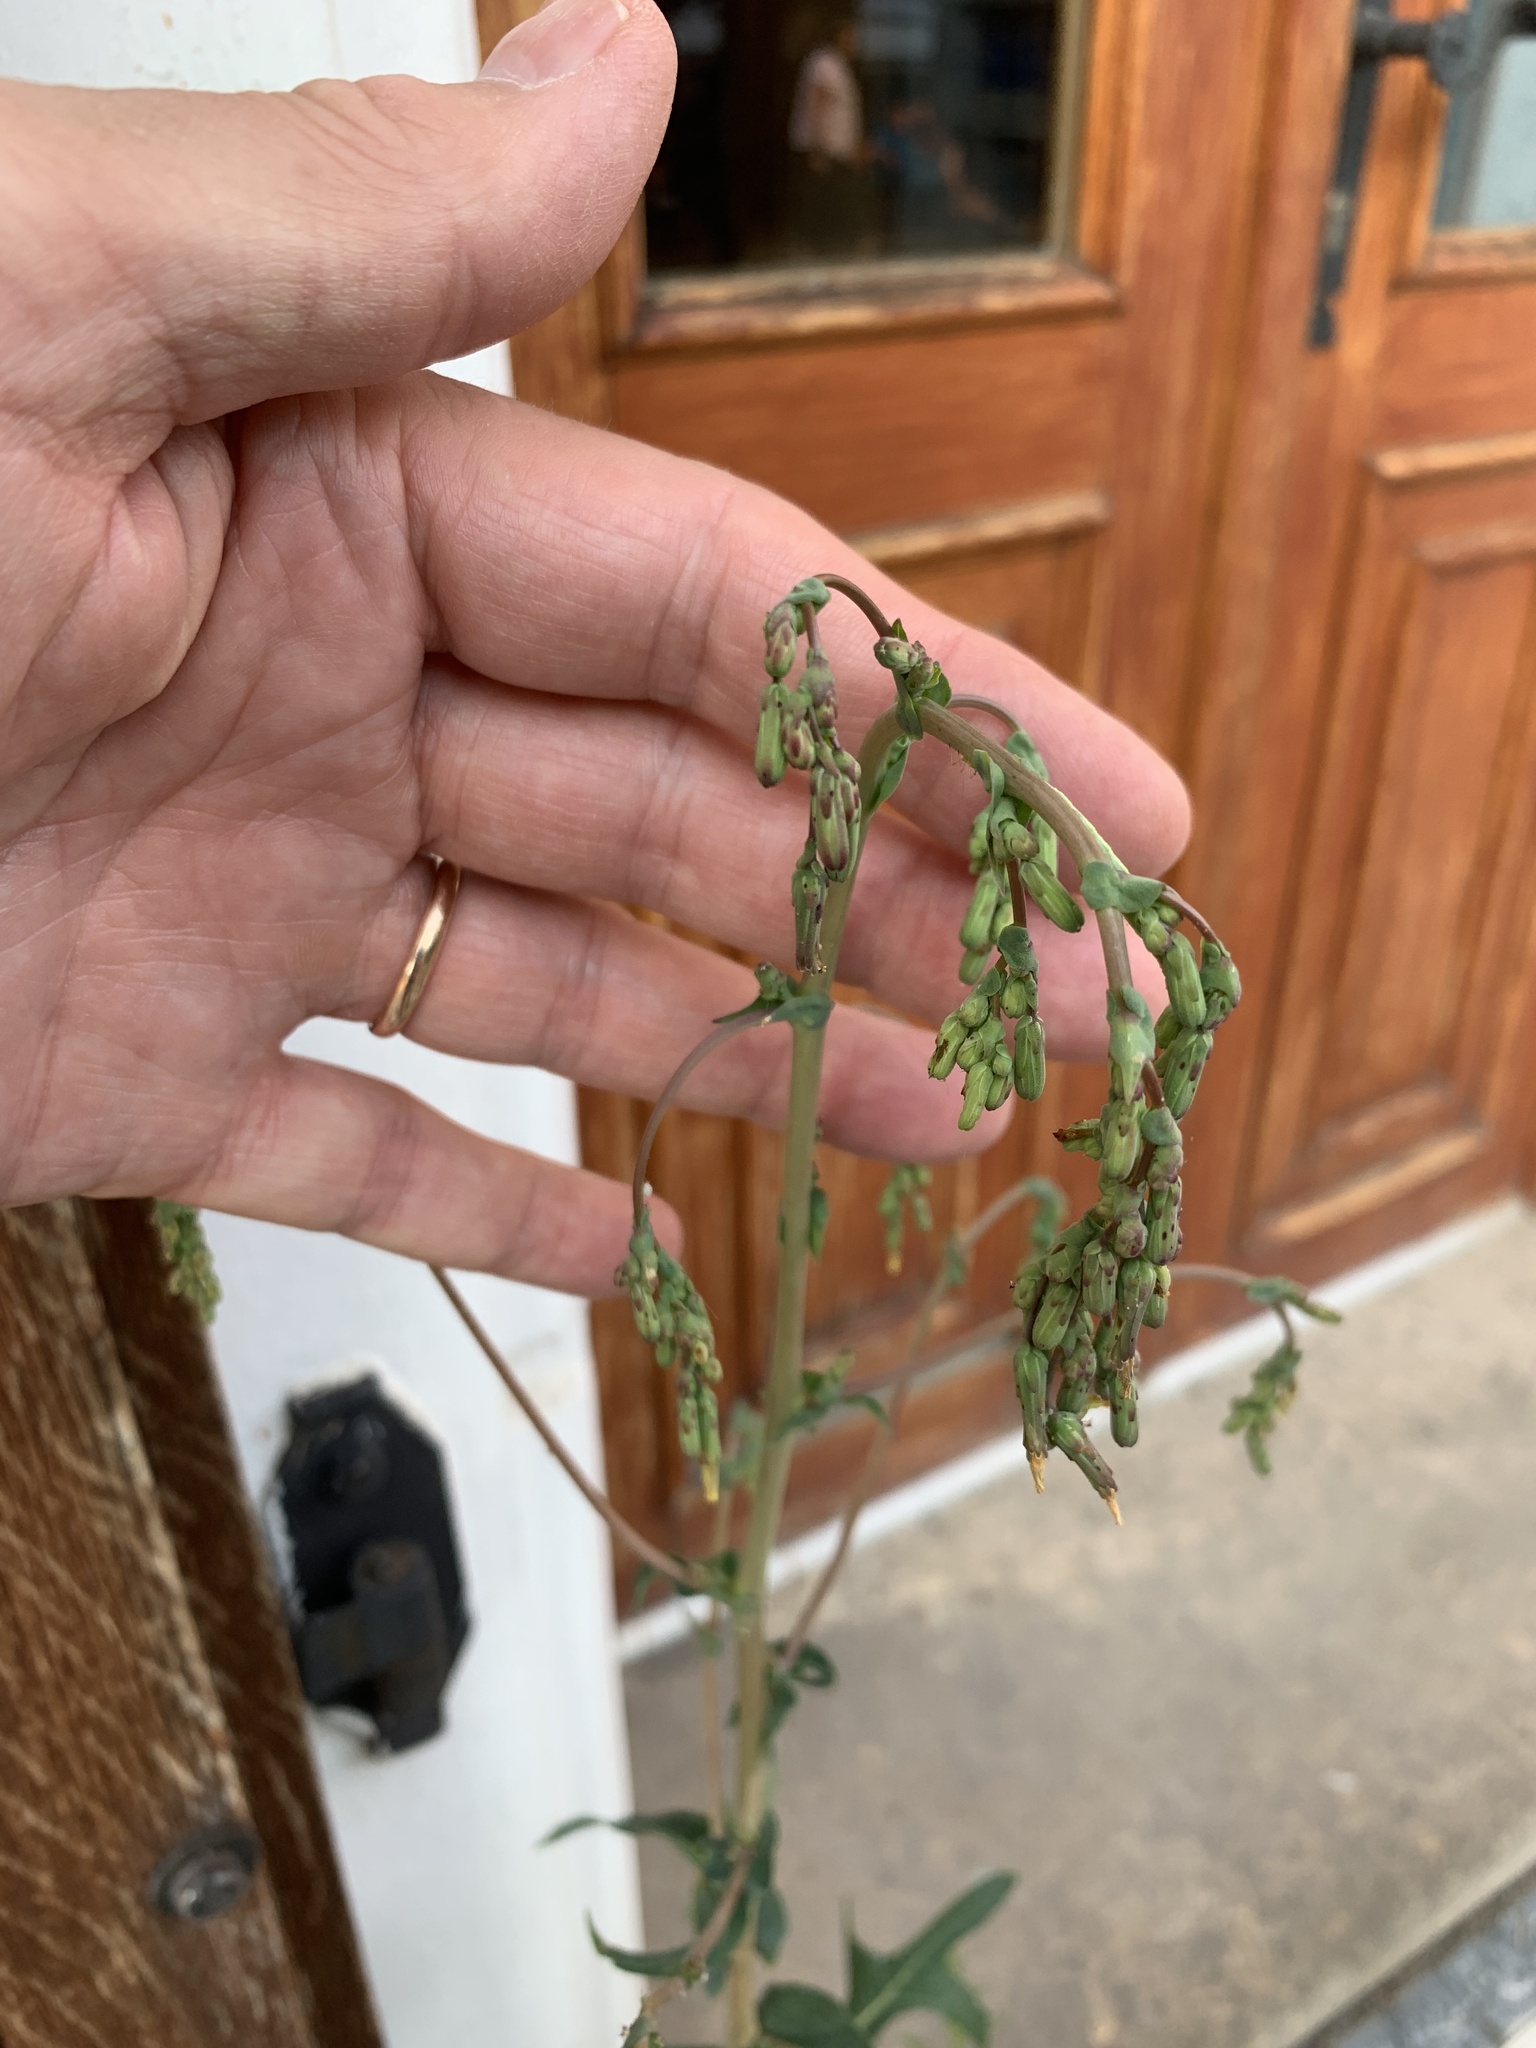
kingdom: Plantae
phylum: Tracheophyta
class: Magnoliopsida
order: Asterales
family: Asteraceae
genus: Lactuca
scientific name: Lactuca serriola
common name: Prickly lettuce
